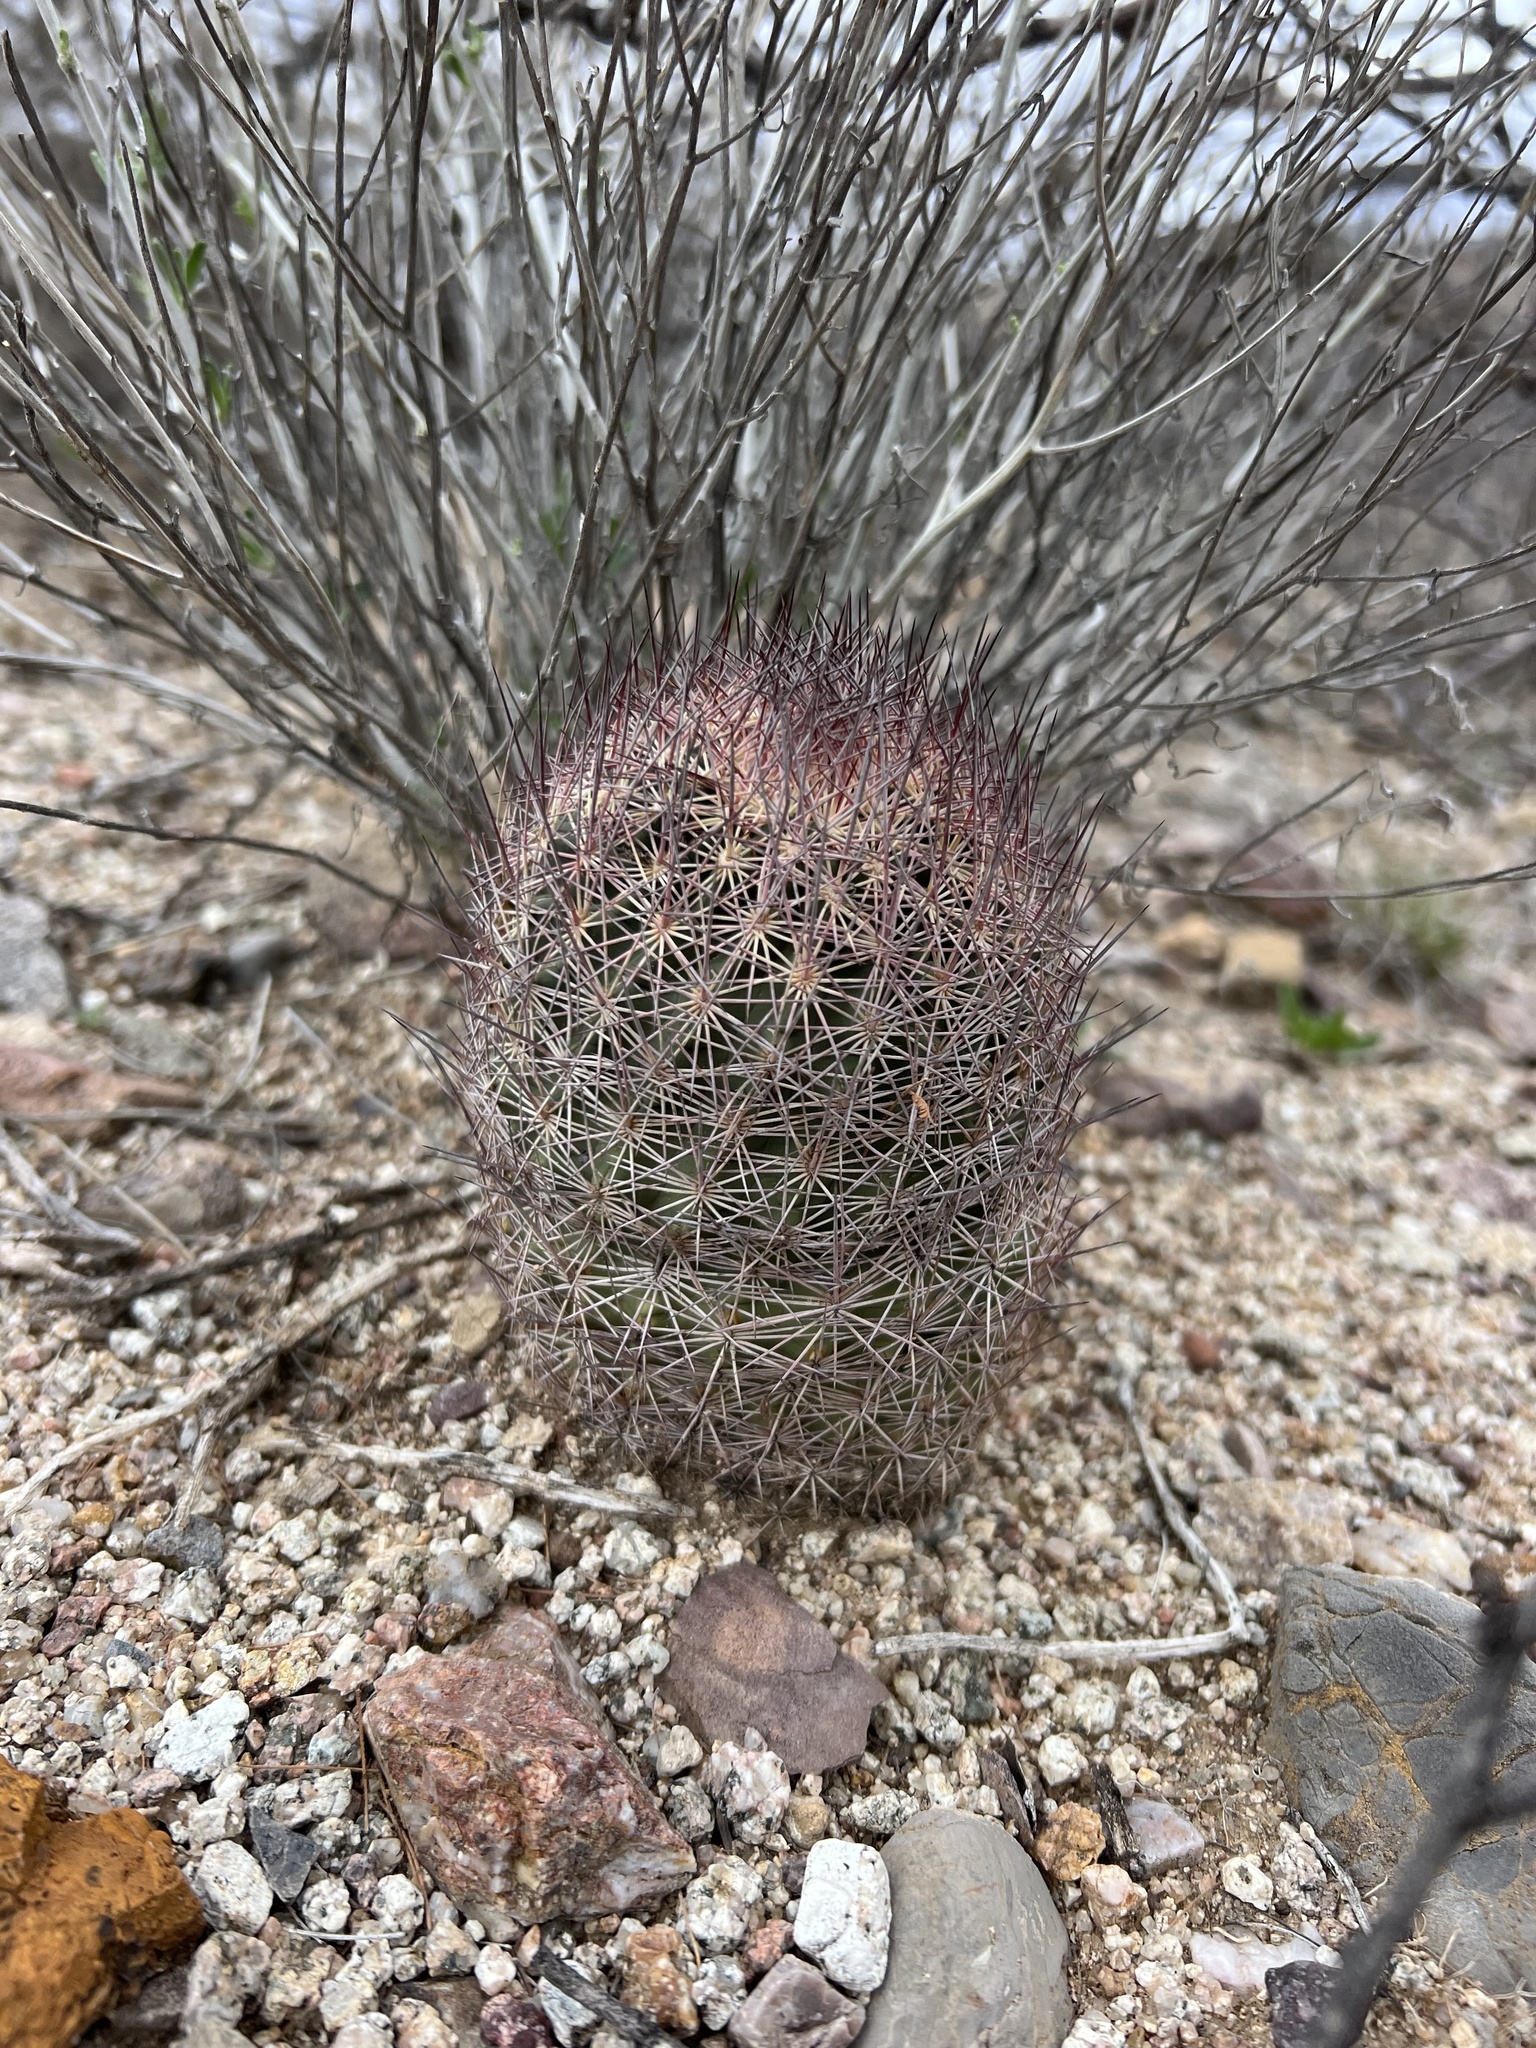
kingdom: Plantae
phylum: Tracheophyta
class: Magnoliopsida
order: Caryophyllales
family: Cactaceae
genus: Sclerocactus
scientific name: Sclerocactus johnsonii
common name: Eight-spine fishhook cactus
